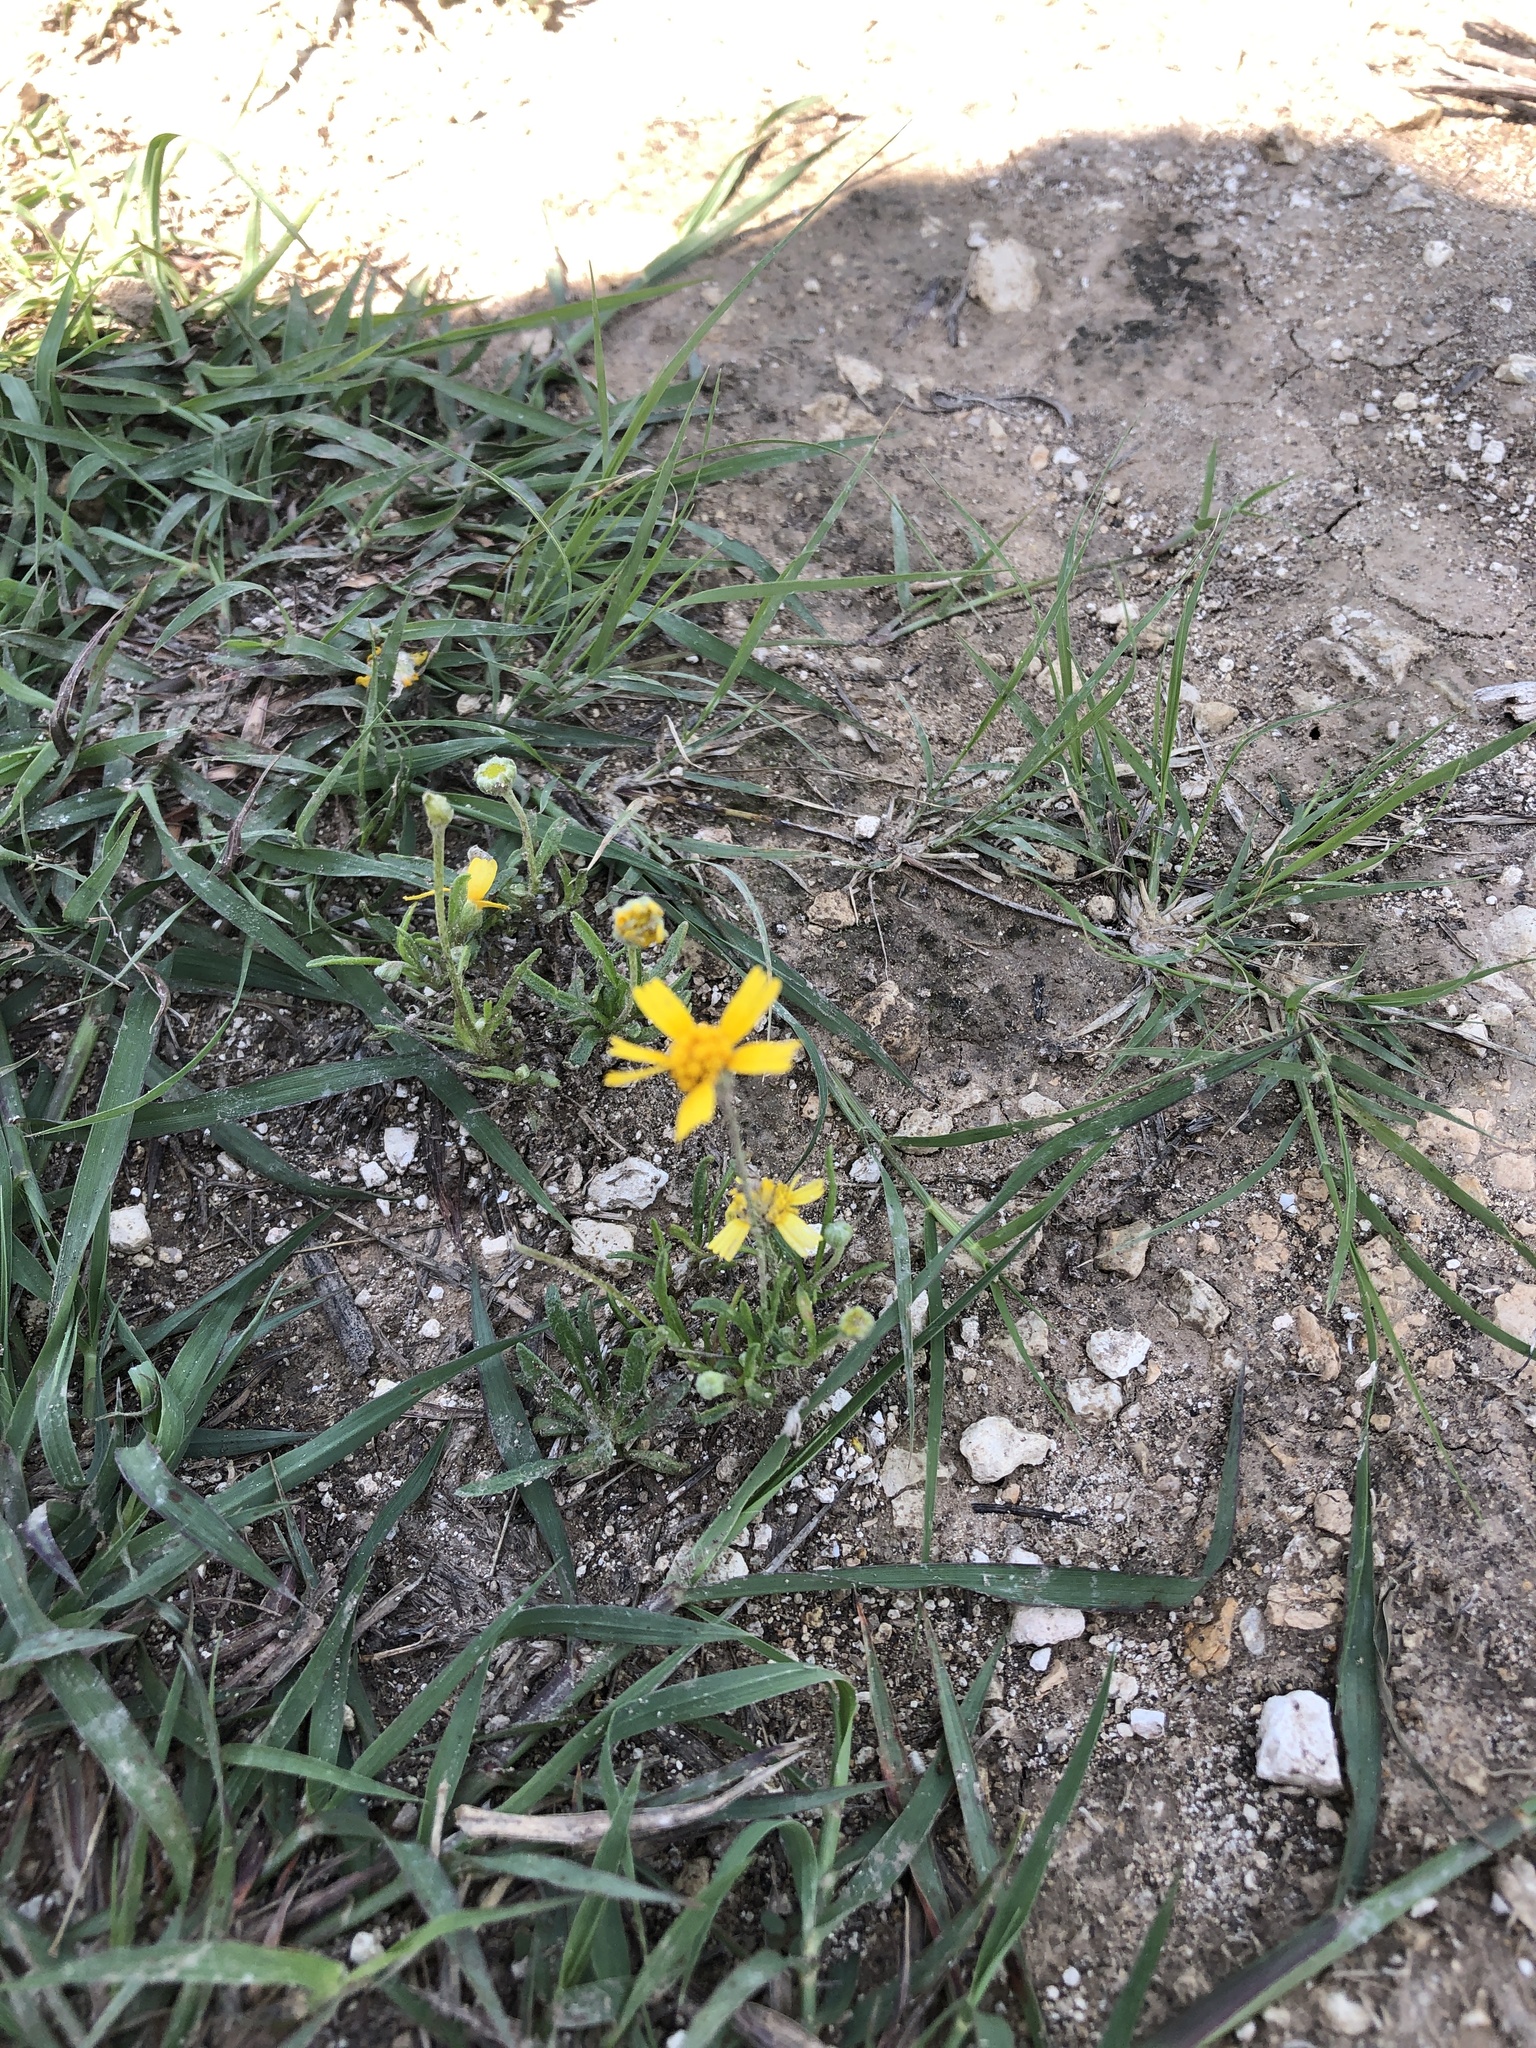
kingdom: Plantae
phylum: Tracheophyta
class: Magnoliopsida
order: Asterales
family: Asteraceae
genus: Tetraneuris
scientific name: Tetraneuris linearifolia
